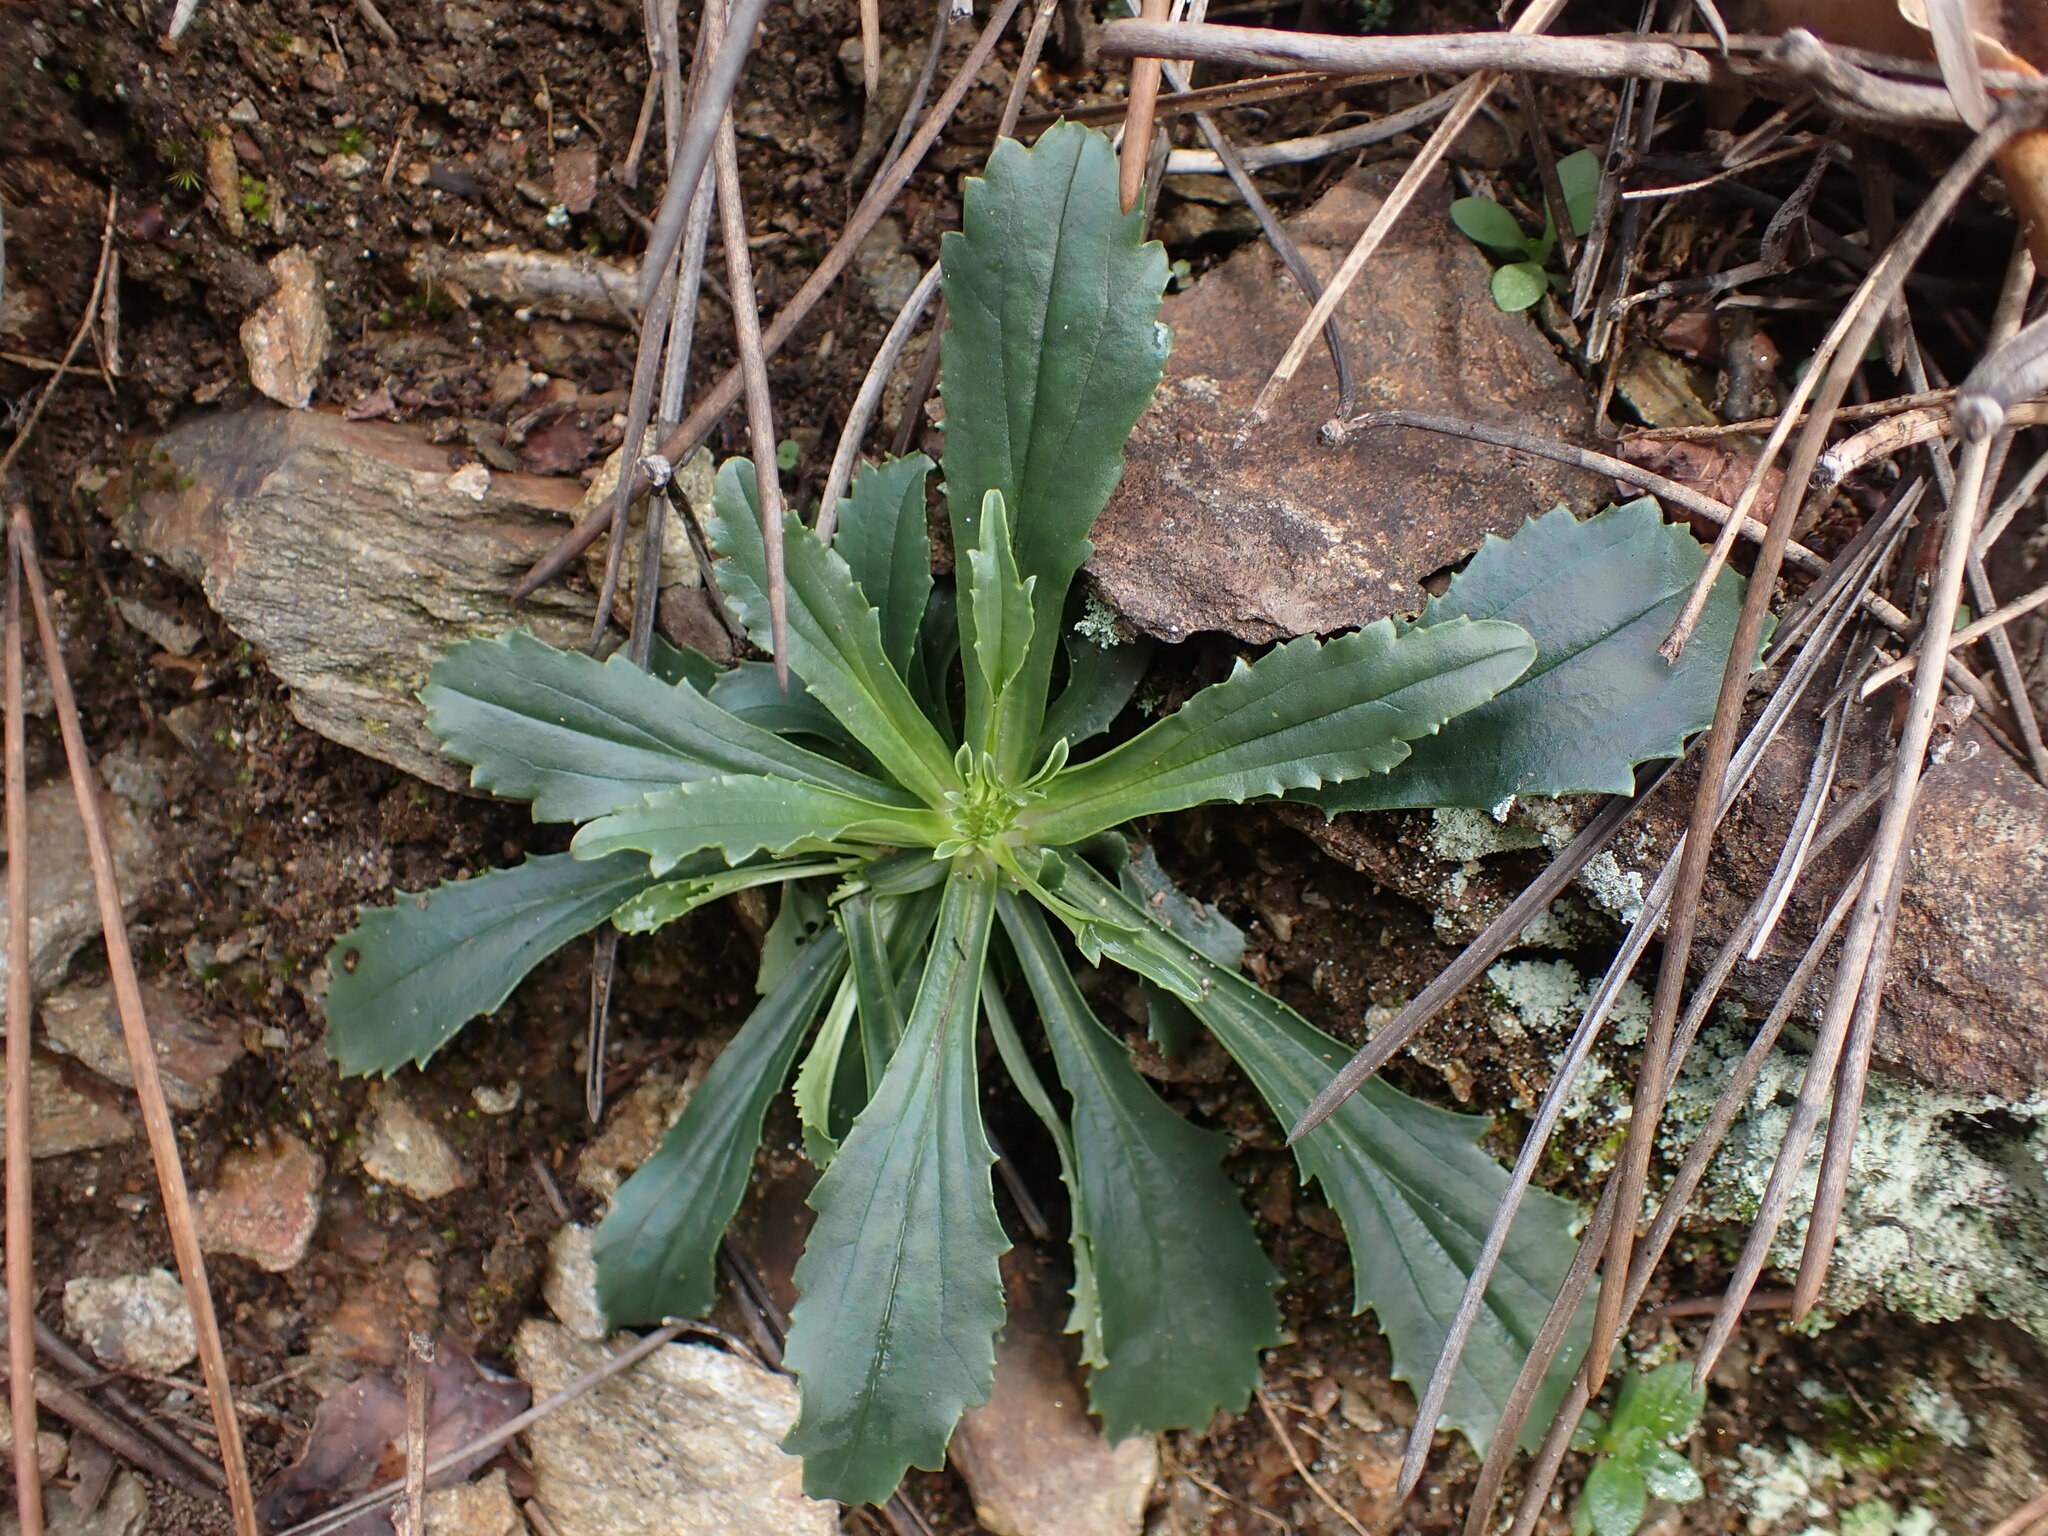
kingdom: Plantae
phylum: Tracheophyta
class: Magnoliopsida
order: Lamiales
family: Plantaginaceae
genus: Anarrhinum
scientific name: Anarrhinum bellidifolium
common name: Daisy-leaved toadflax
